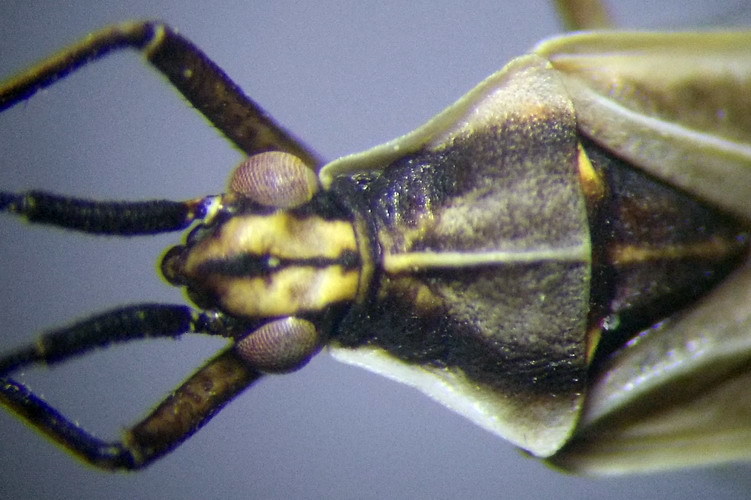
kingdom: Animalia
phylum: Arthropoda
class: Insecta
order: Hemiptera
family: Miridae
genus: Acetropis
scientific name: Acetropis carinata
